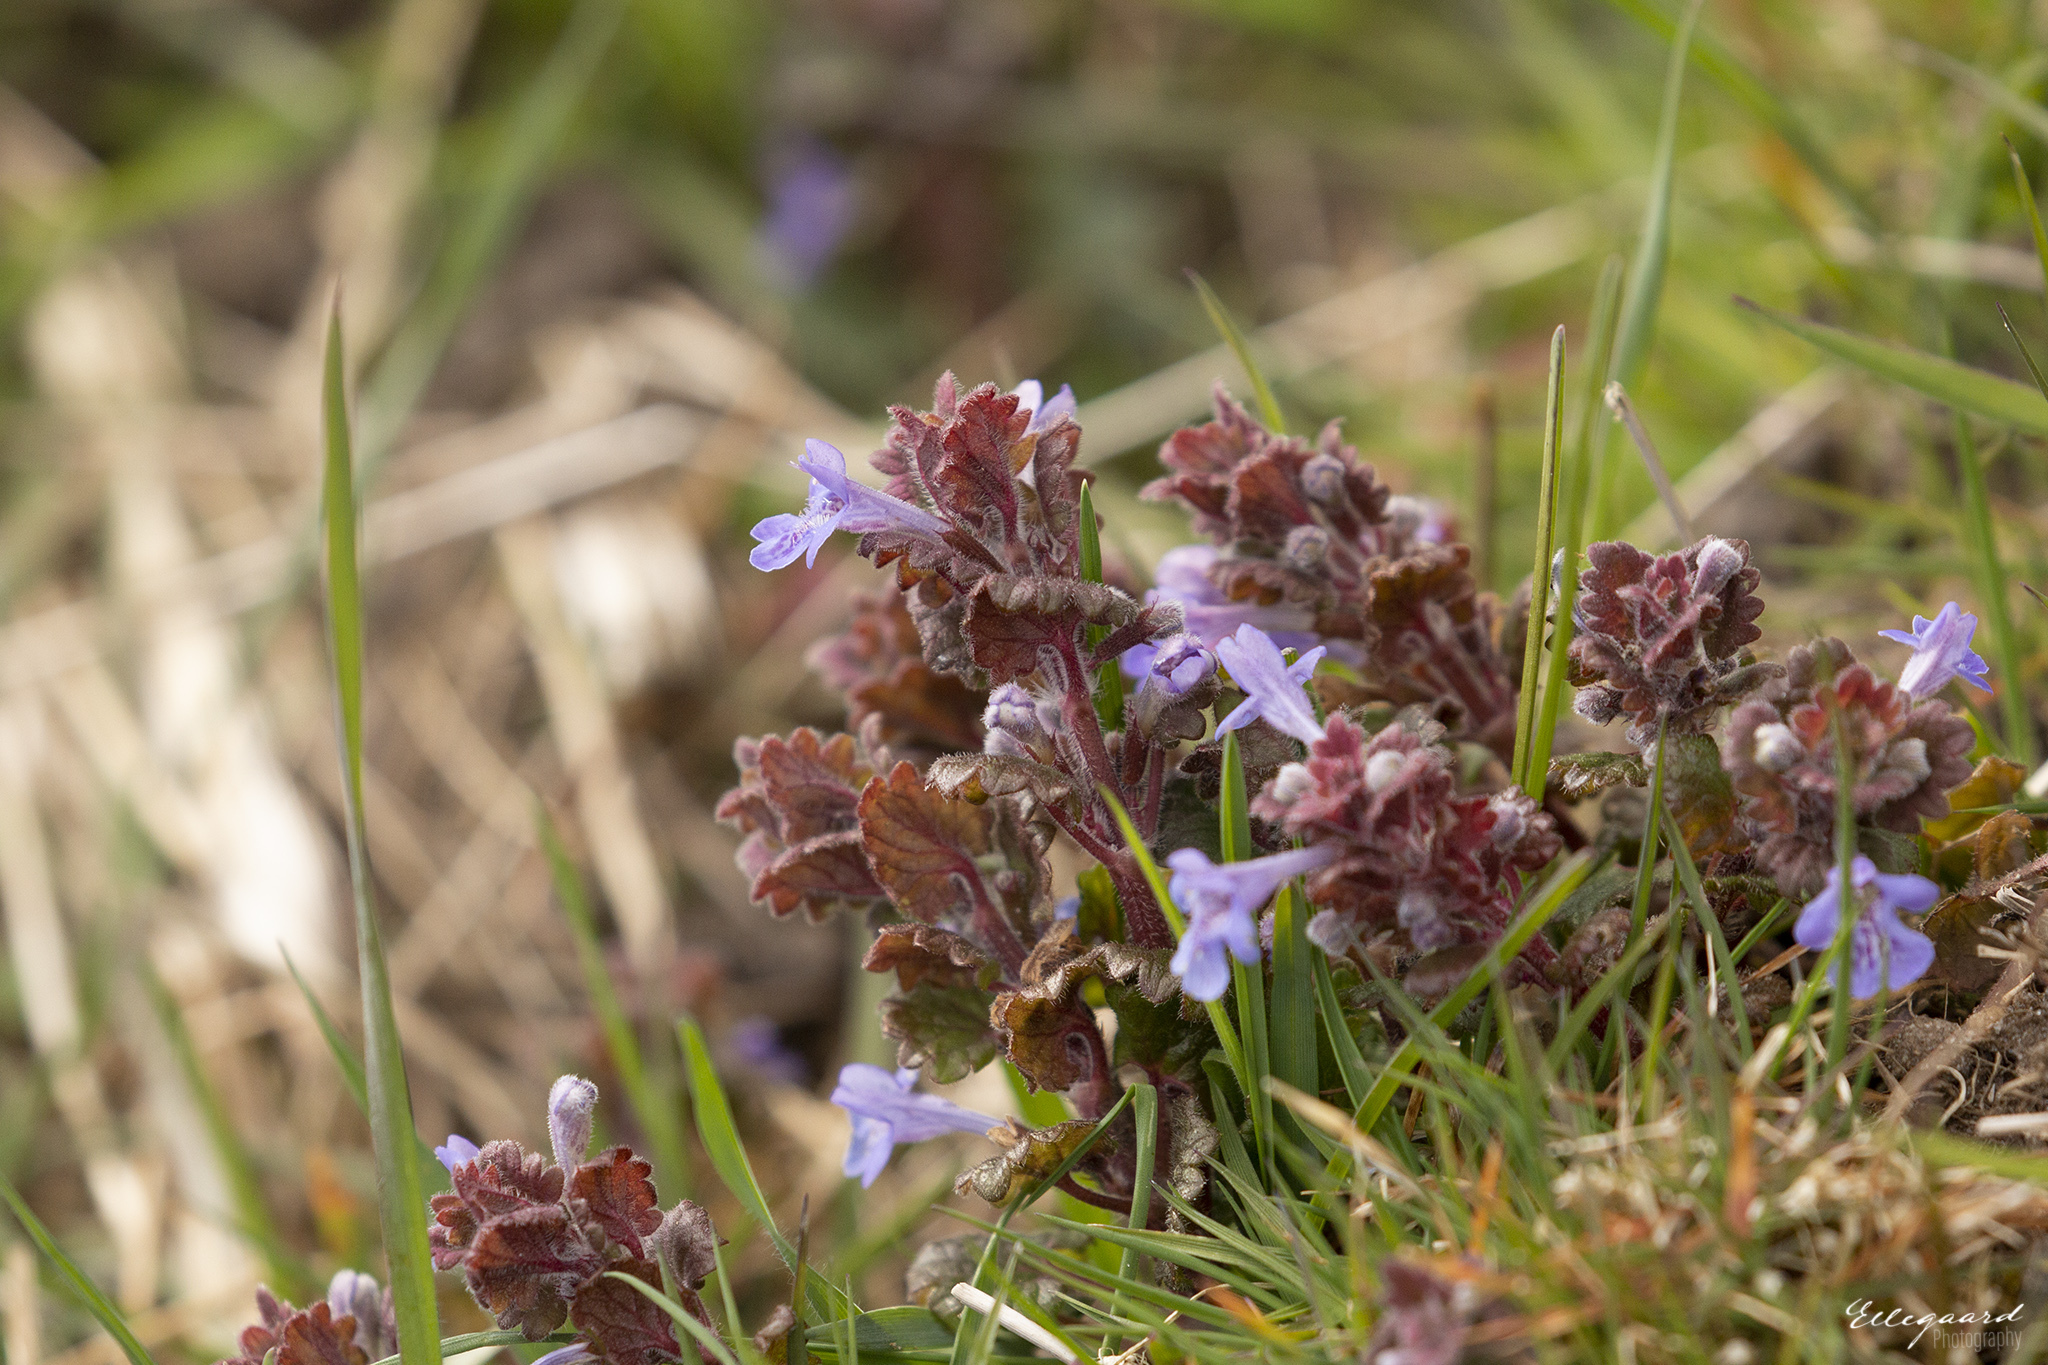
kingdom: Plantae
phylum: Tracheophyta
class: Magnoliopsida
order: Lamiales
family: Lamiaceae
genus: Glechoma
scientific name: Glechoma hederacea
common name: Ground ivy
